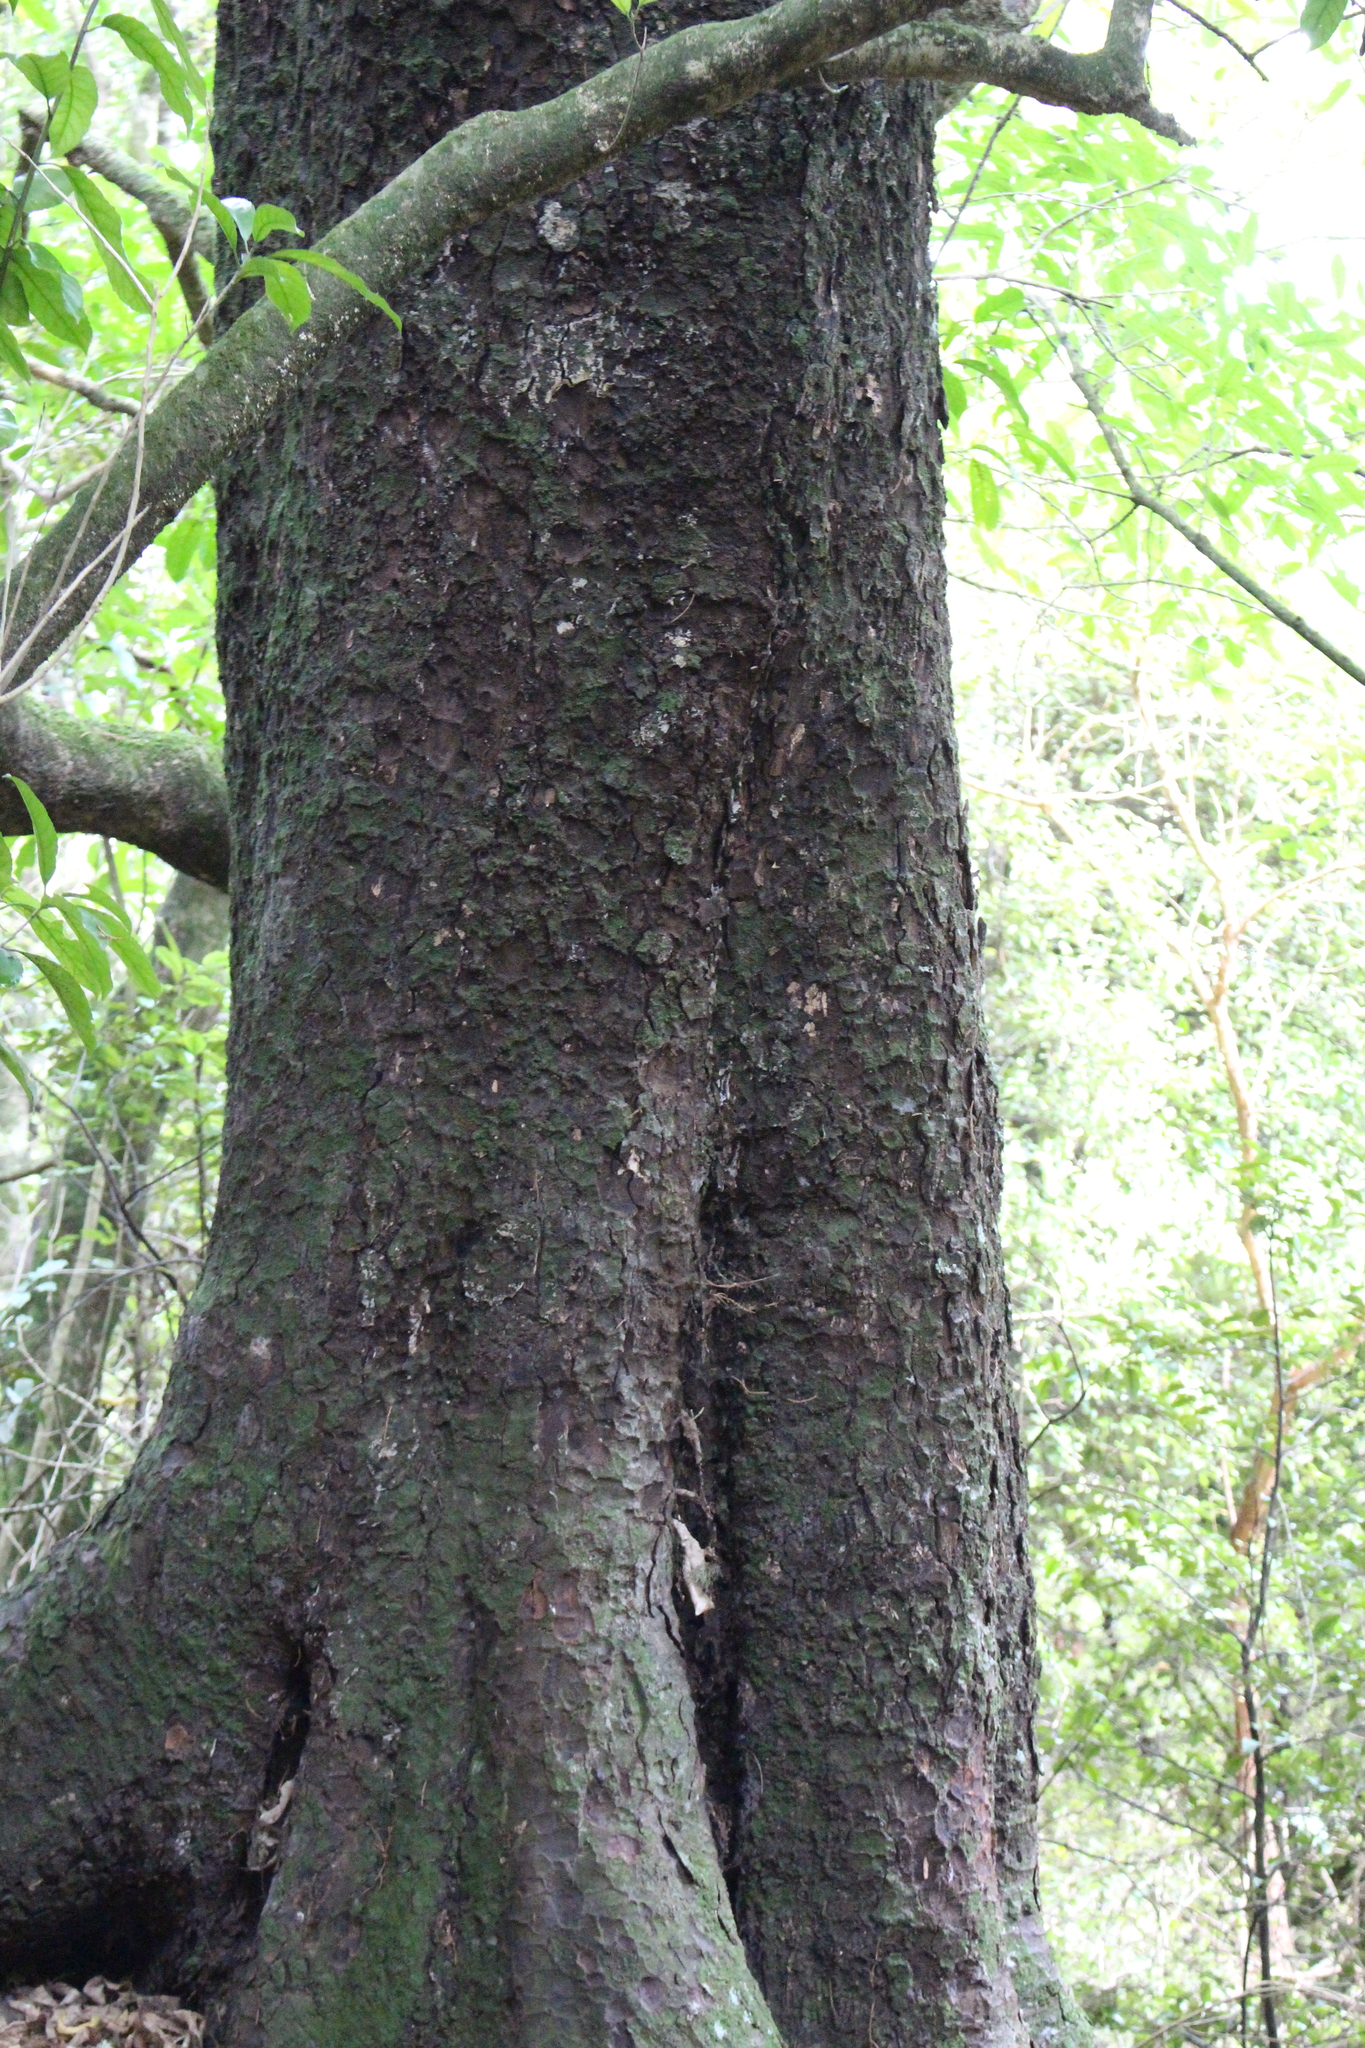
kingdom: Plantae
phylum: Tracheophyta
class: Pinopsida
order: Pinales
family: Podocarpaceae
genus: Prumnopitys
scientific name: Prumnopitys taxifolia
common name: Matai
